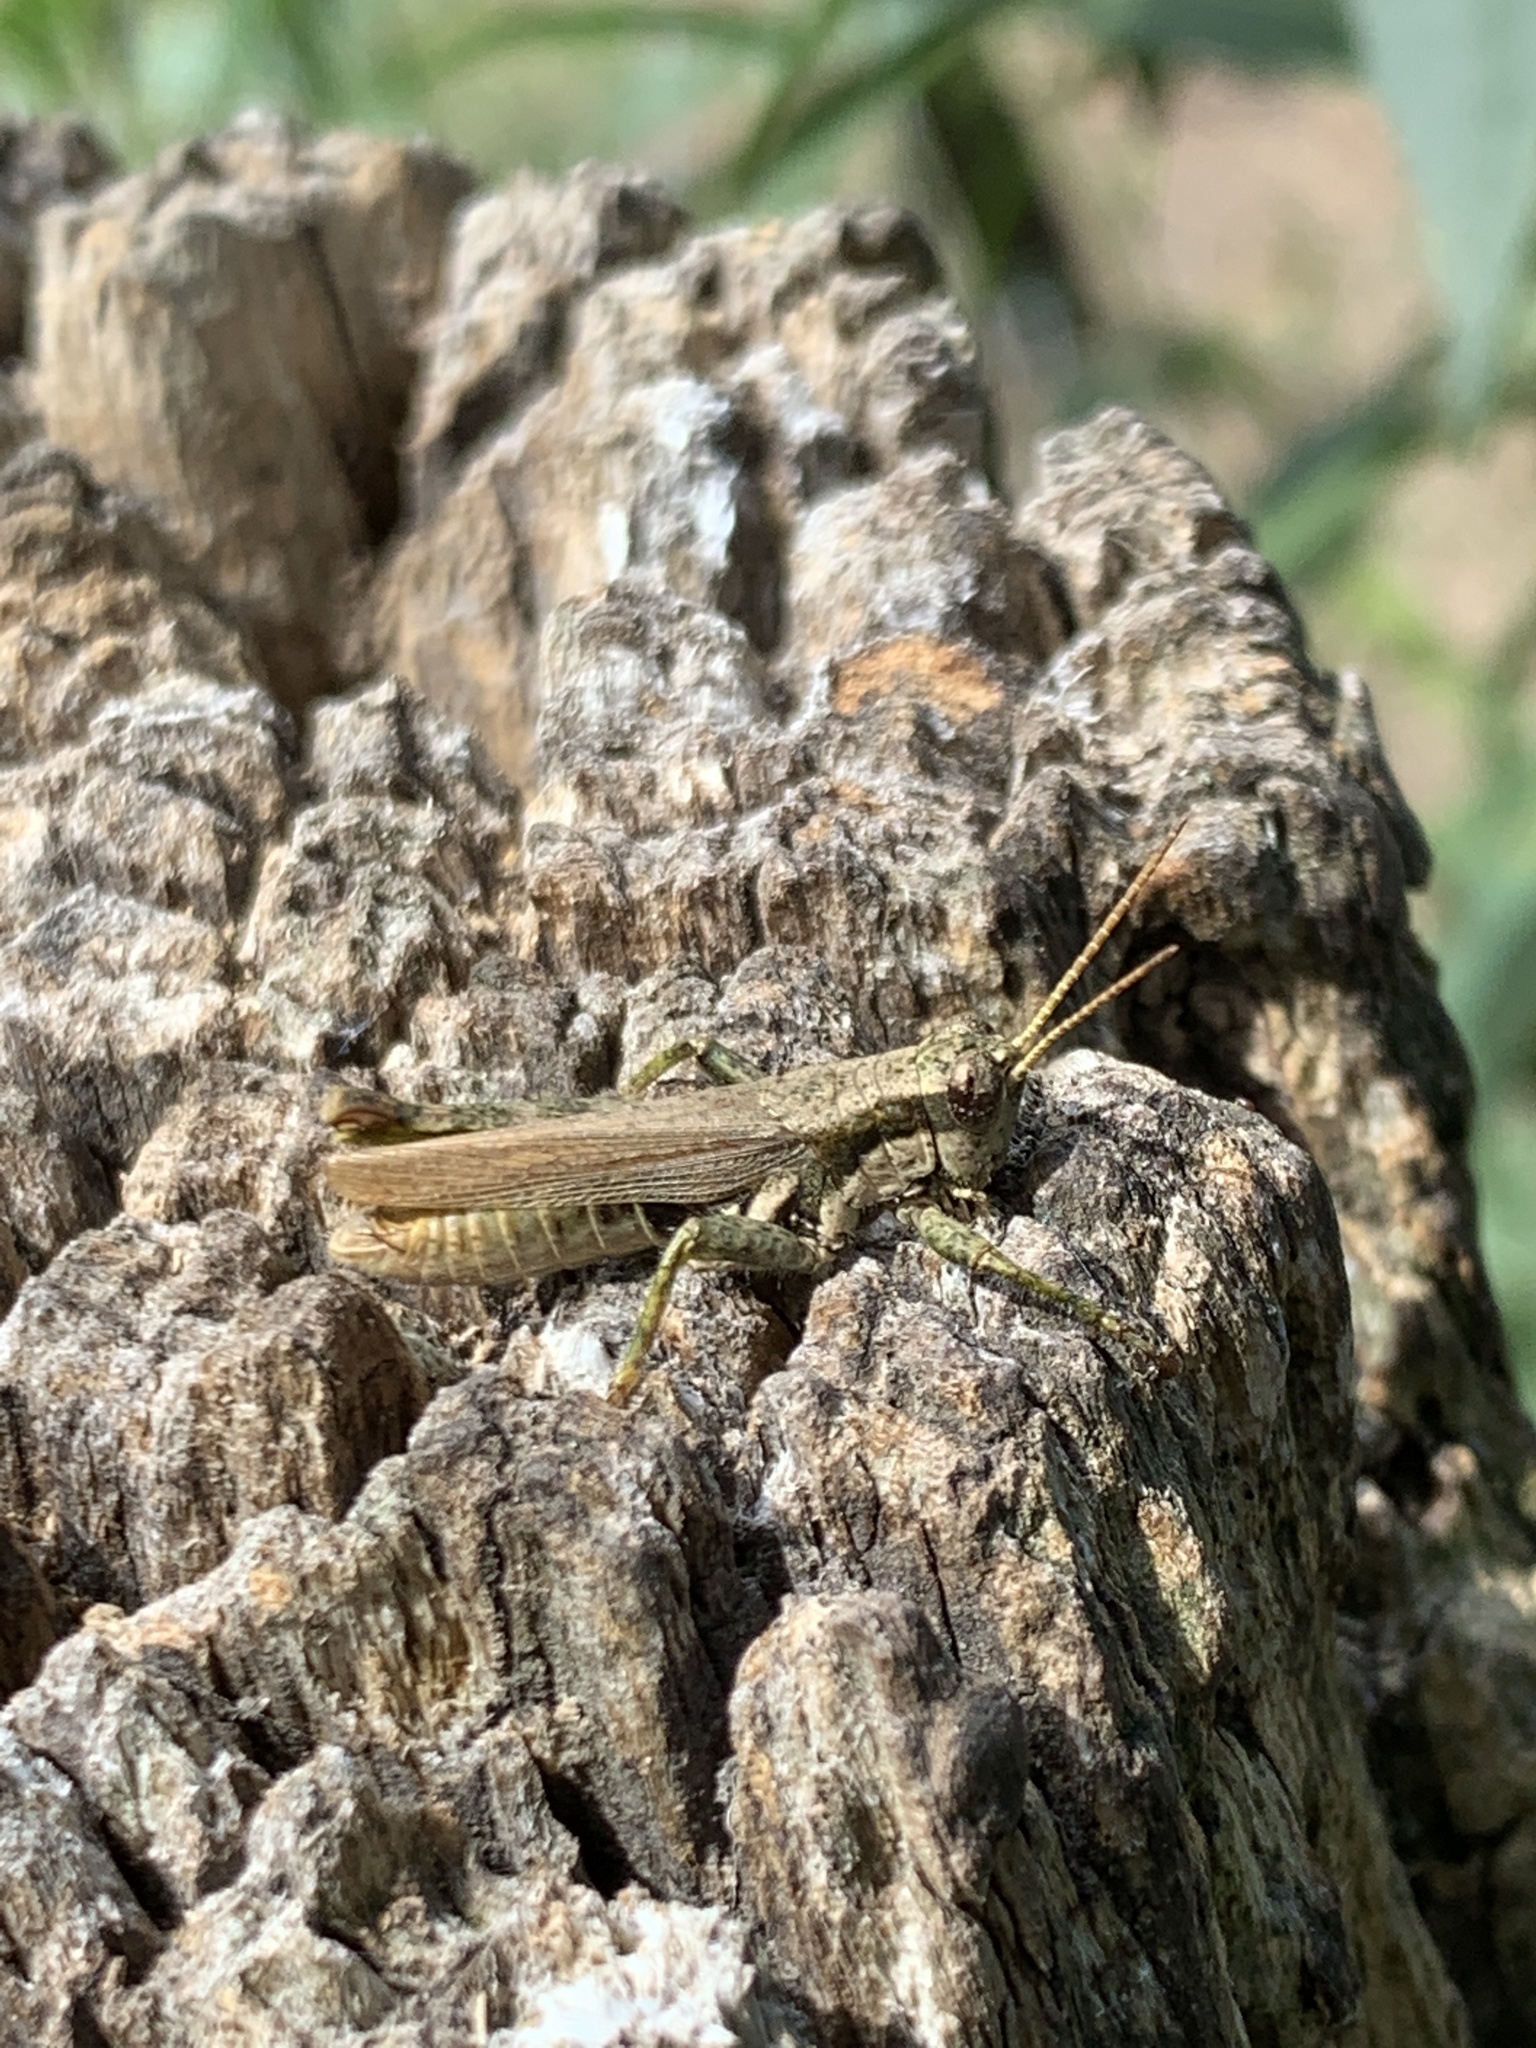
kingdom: Animalia
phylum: Arthropoda
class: Insecta
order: Orthoptera
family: Acrididae
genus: Ronderosia
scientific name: Ronderosia bergii
